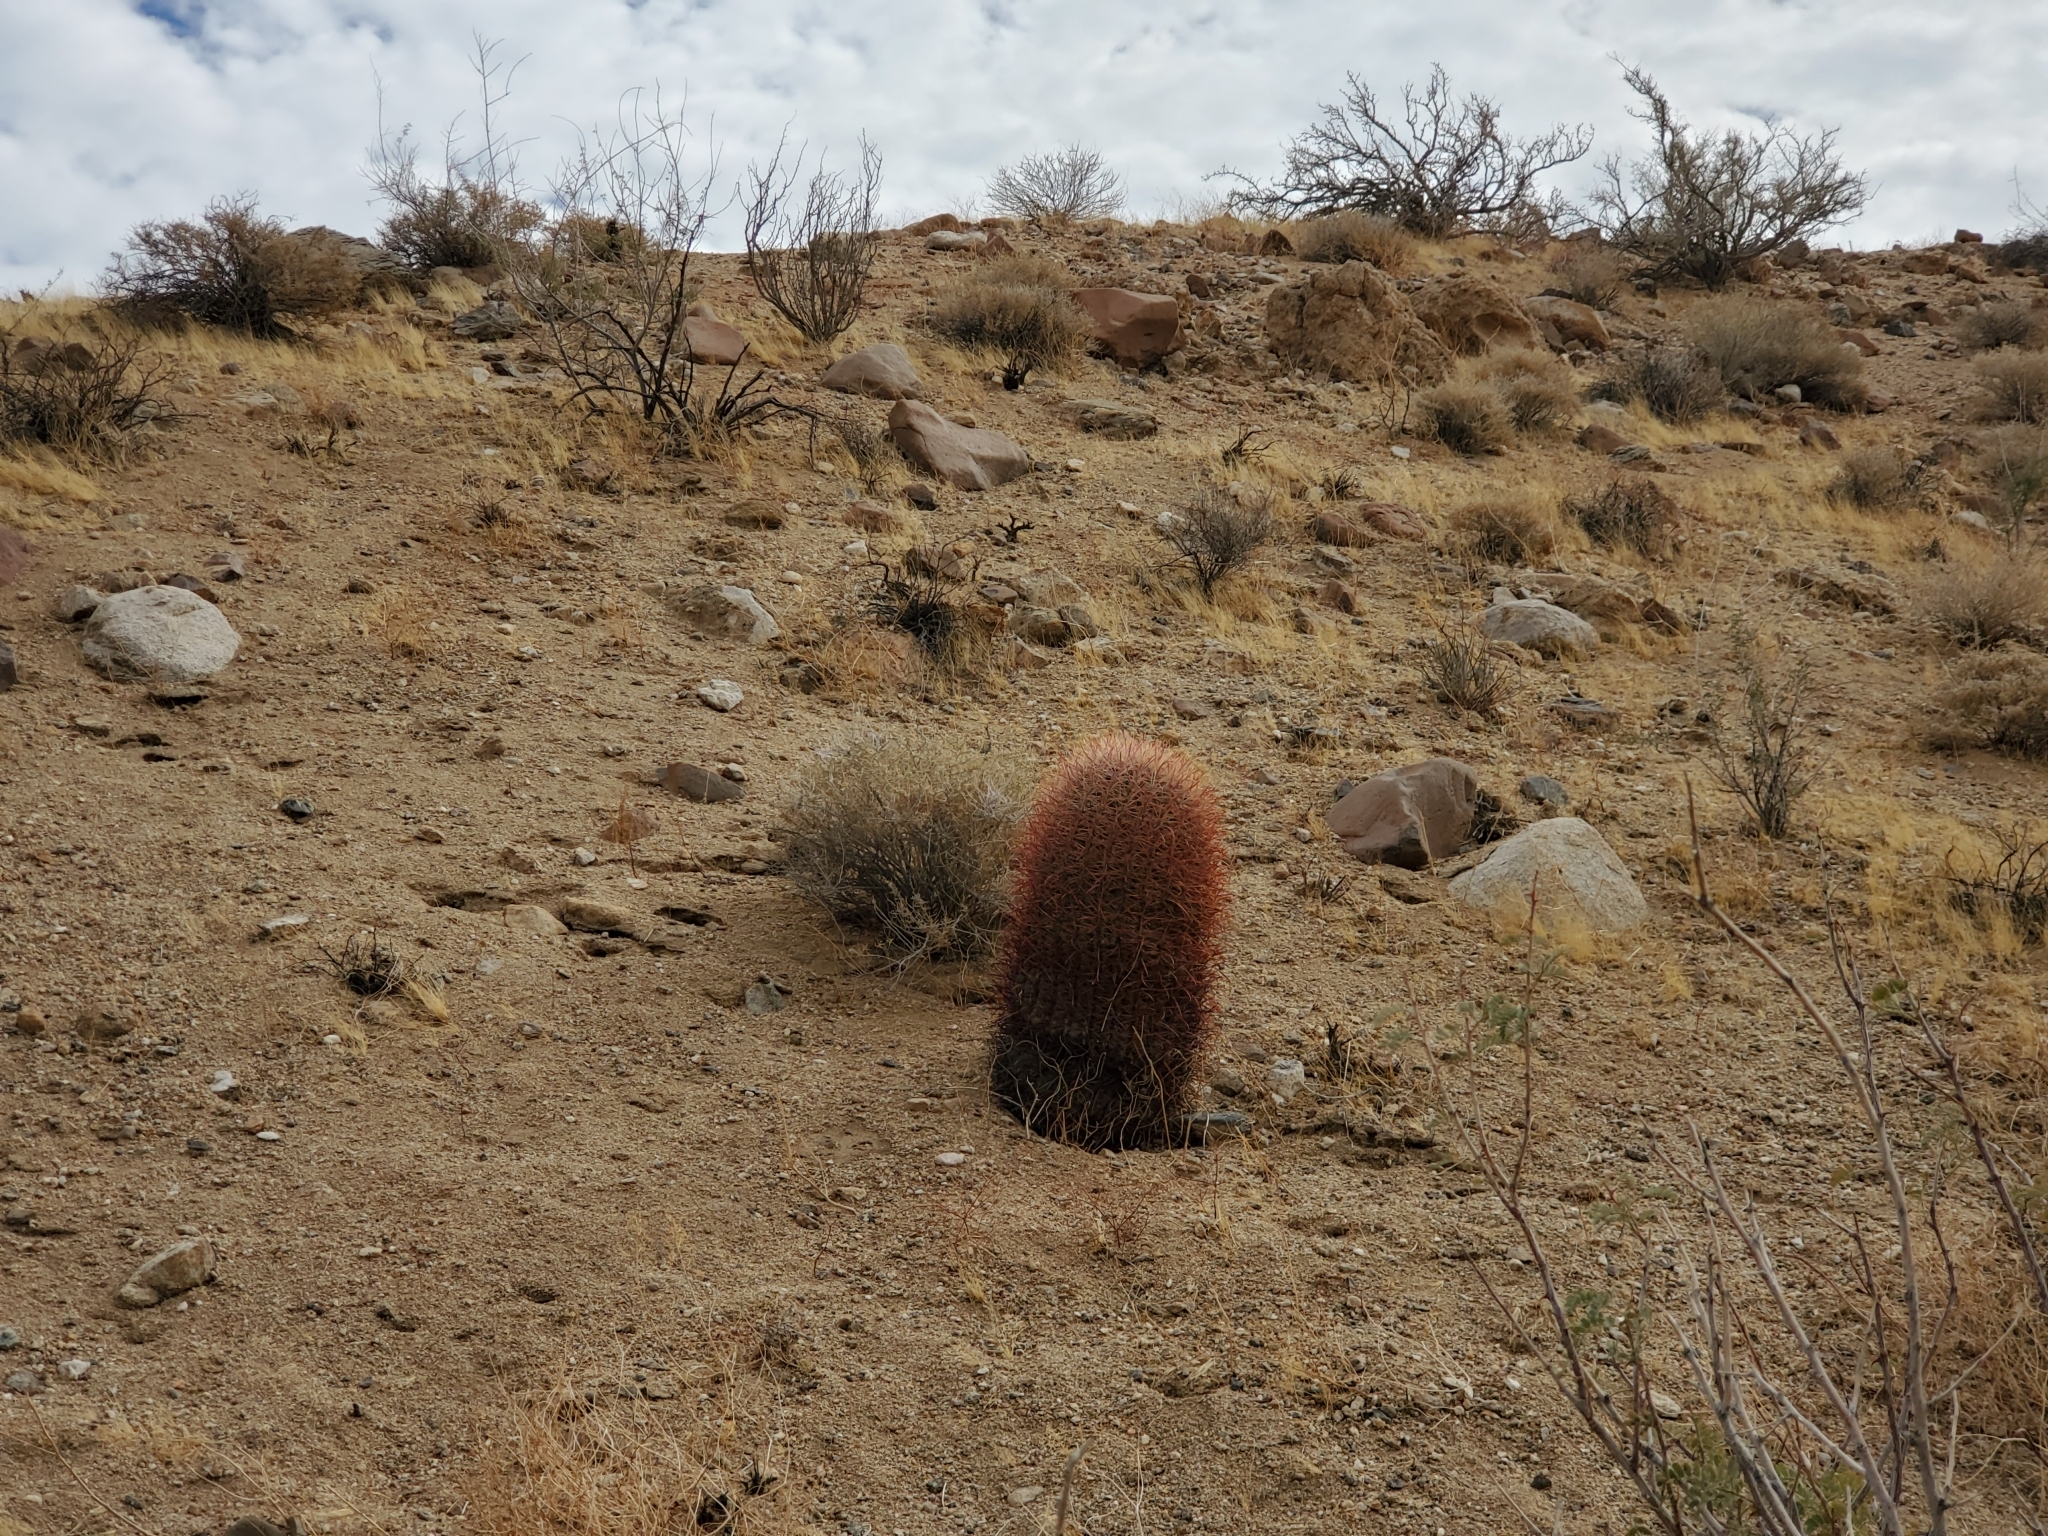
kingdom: Plantae
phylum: Tracheophyta
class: Magnoliopsida
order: Caryophyllales
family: Cactaceae
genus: Ferocactus
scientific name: Ferocactus cylindraceus
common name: California barrel cactus
